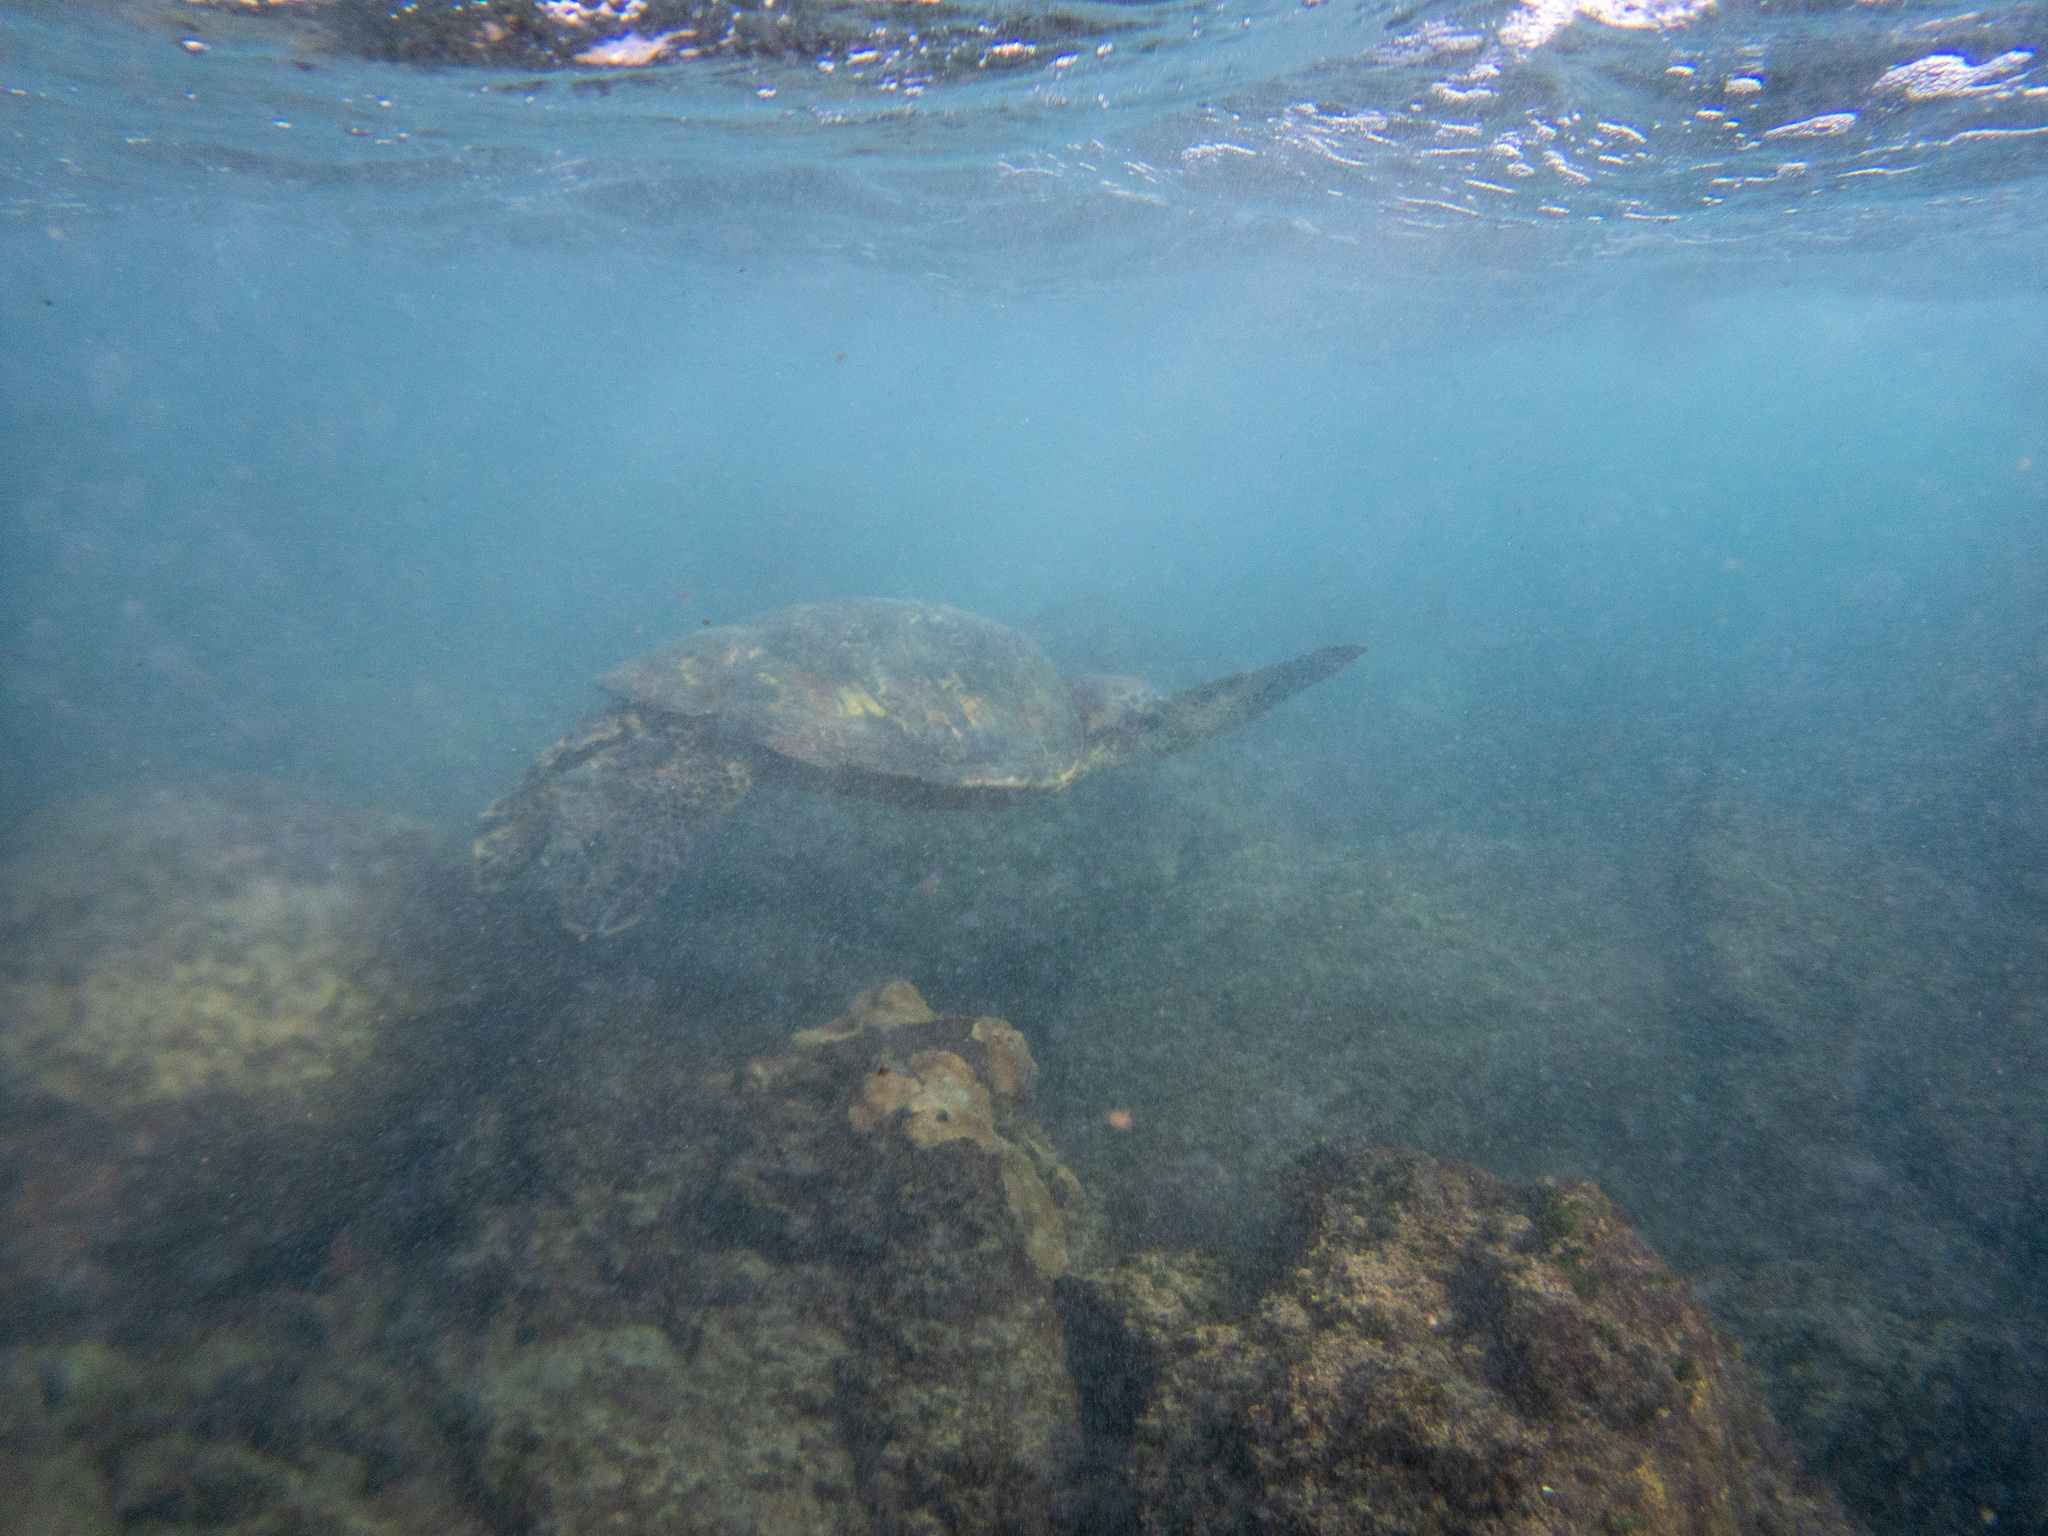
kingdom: Animalia
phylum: Chordata
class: Testudines
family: Cheloniidae
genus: Chelonia
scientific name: Chelonia mydas
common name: Green turtle
